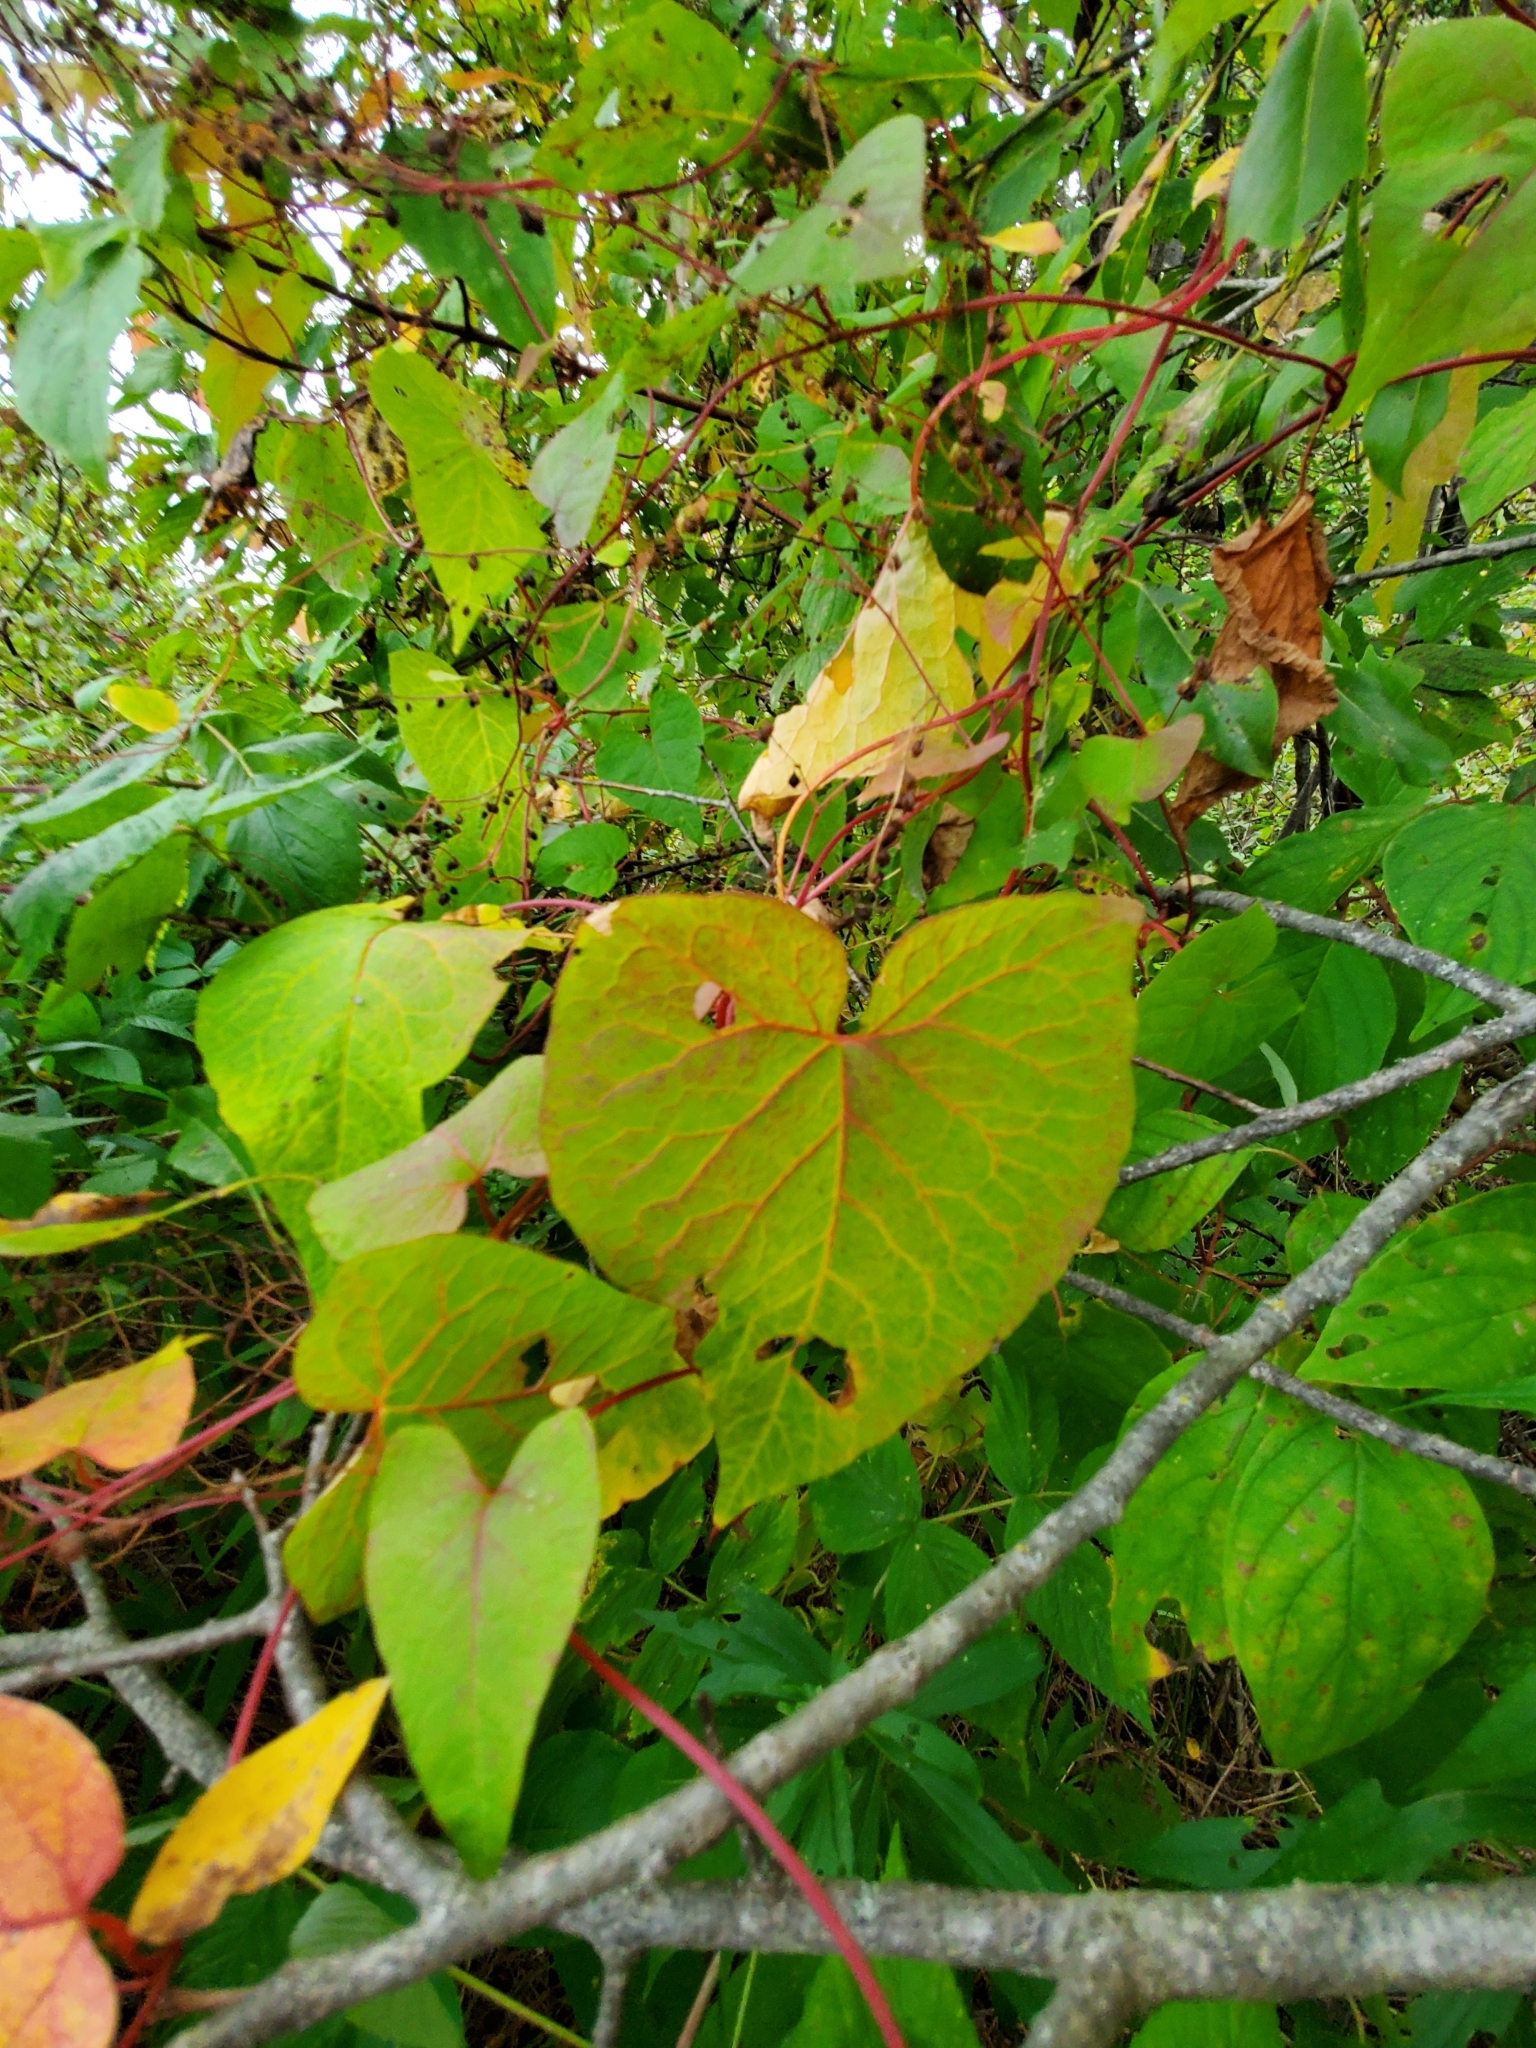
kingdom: Plantae
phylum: Tracheophyta
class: Magnoliopsida
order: Caryophyllales
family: Polygonaceae
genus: Parogonum
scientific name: Parogonum ciliinode
